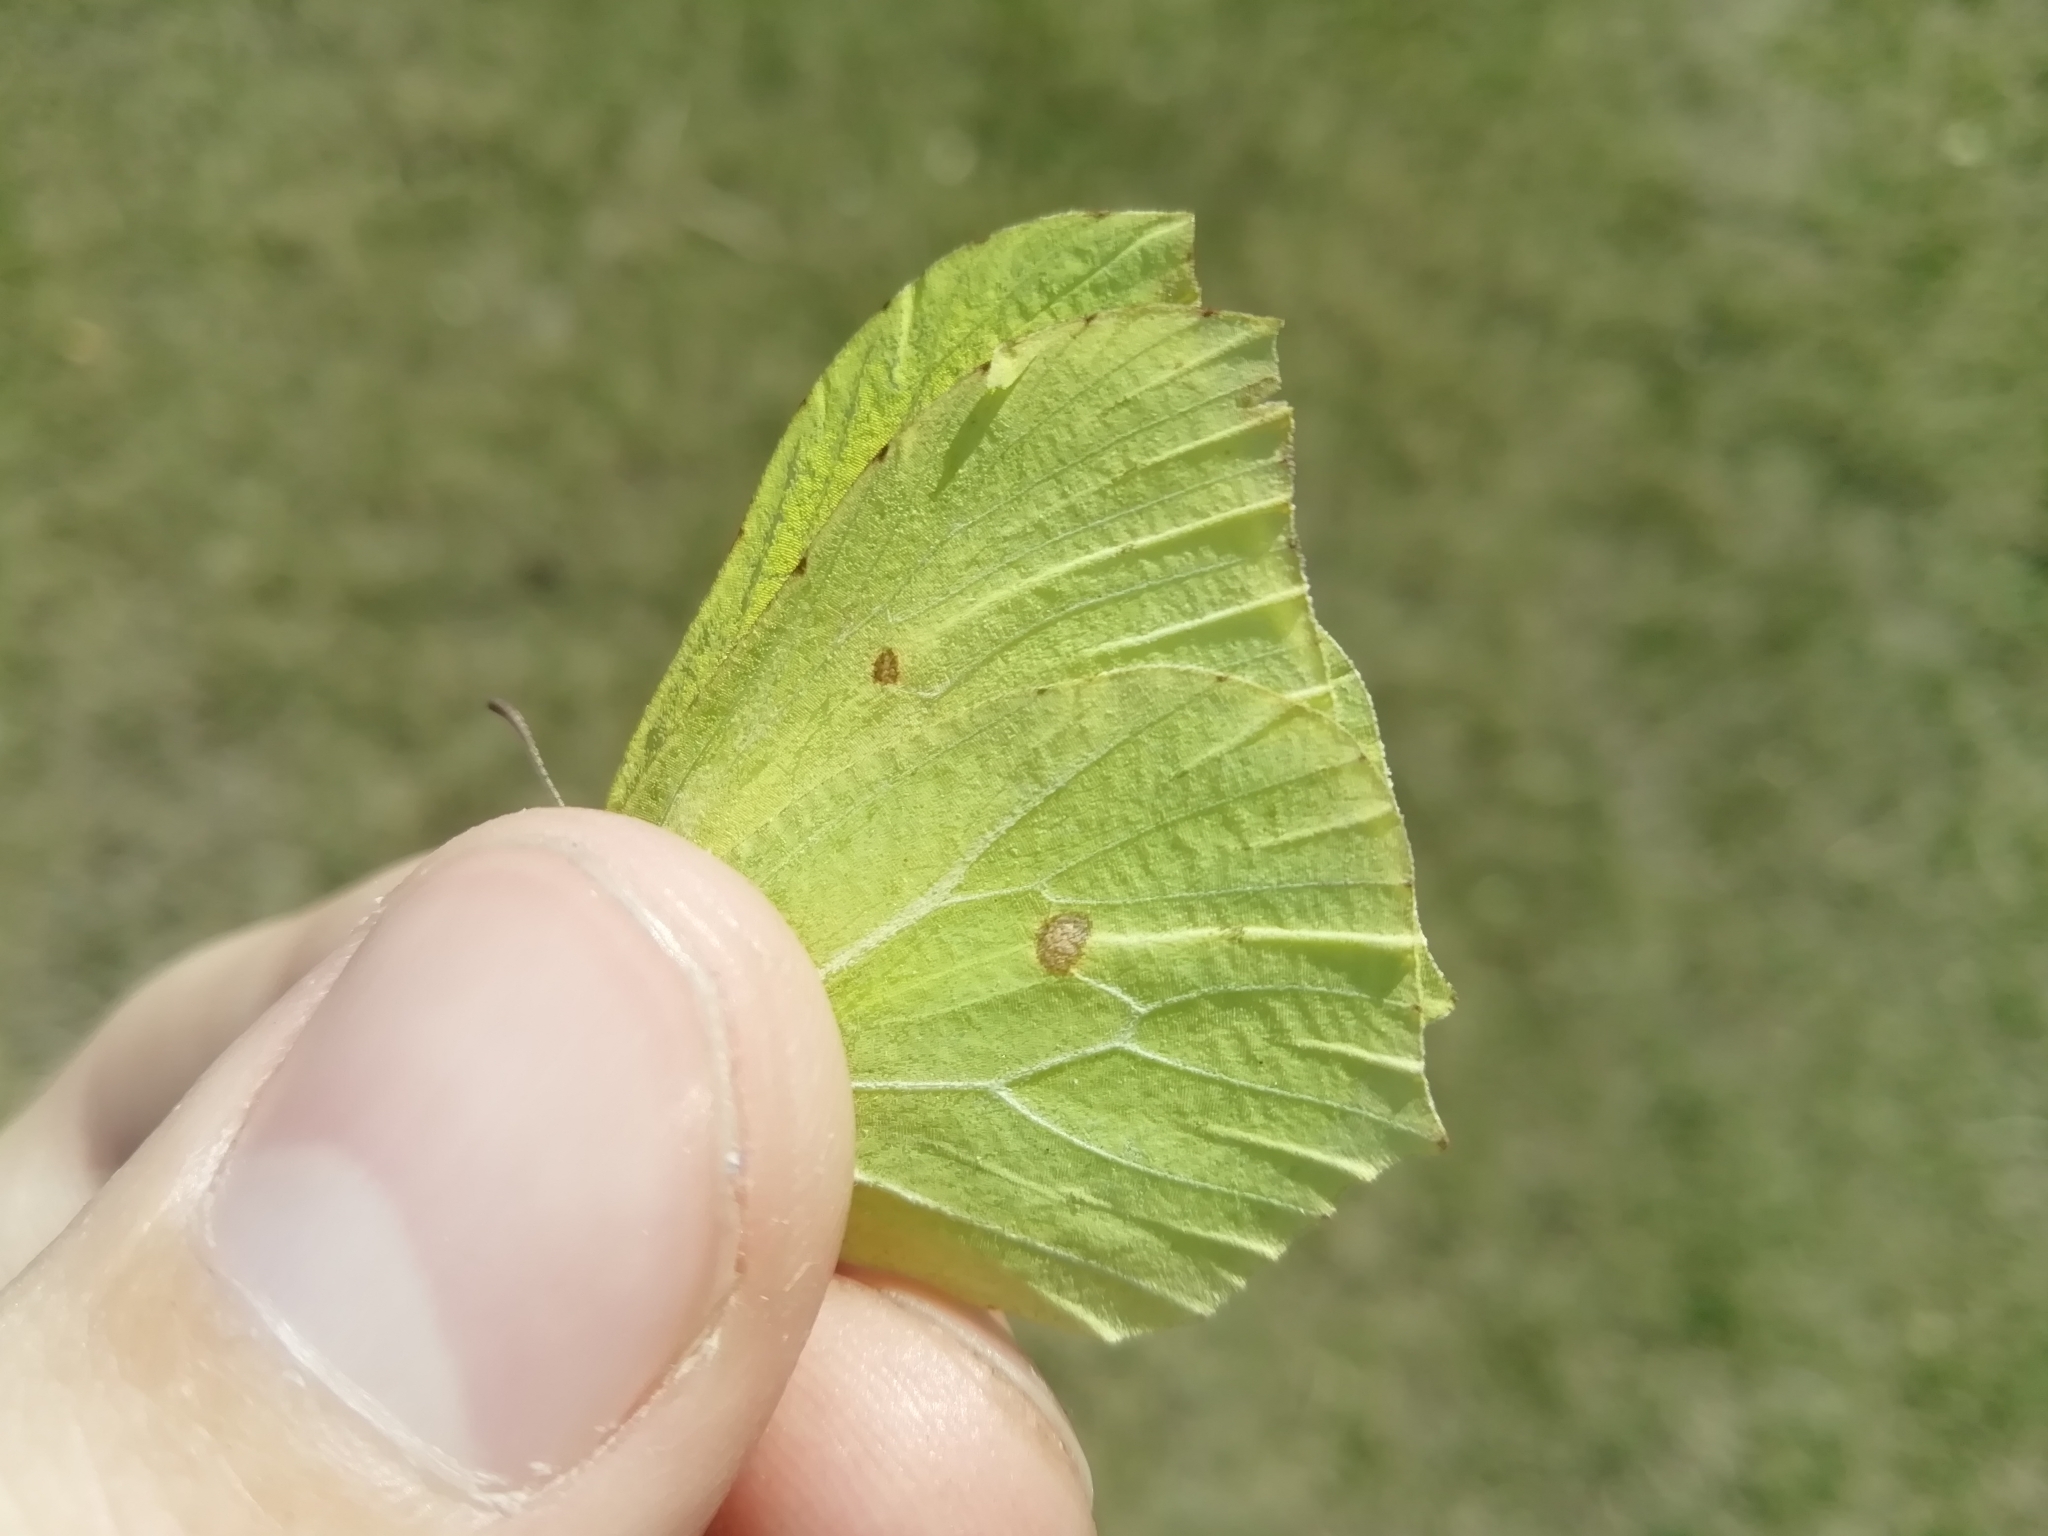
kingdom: Animalia
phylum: Arthropoda
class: Insecta
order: Lepidoptera
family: Pieridae
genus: Gonepteryx
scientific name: Gonepteryx rhamni
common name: Brimstone
